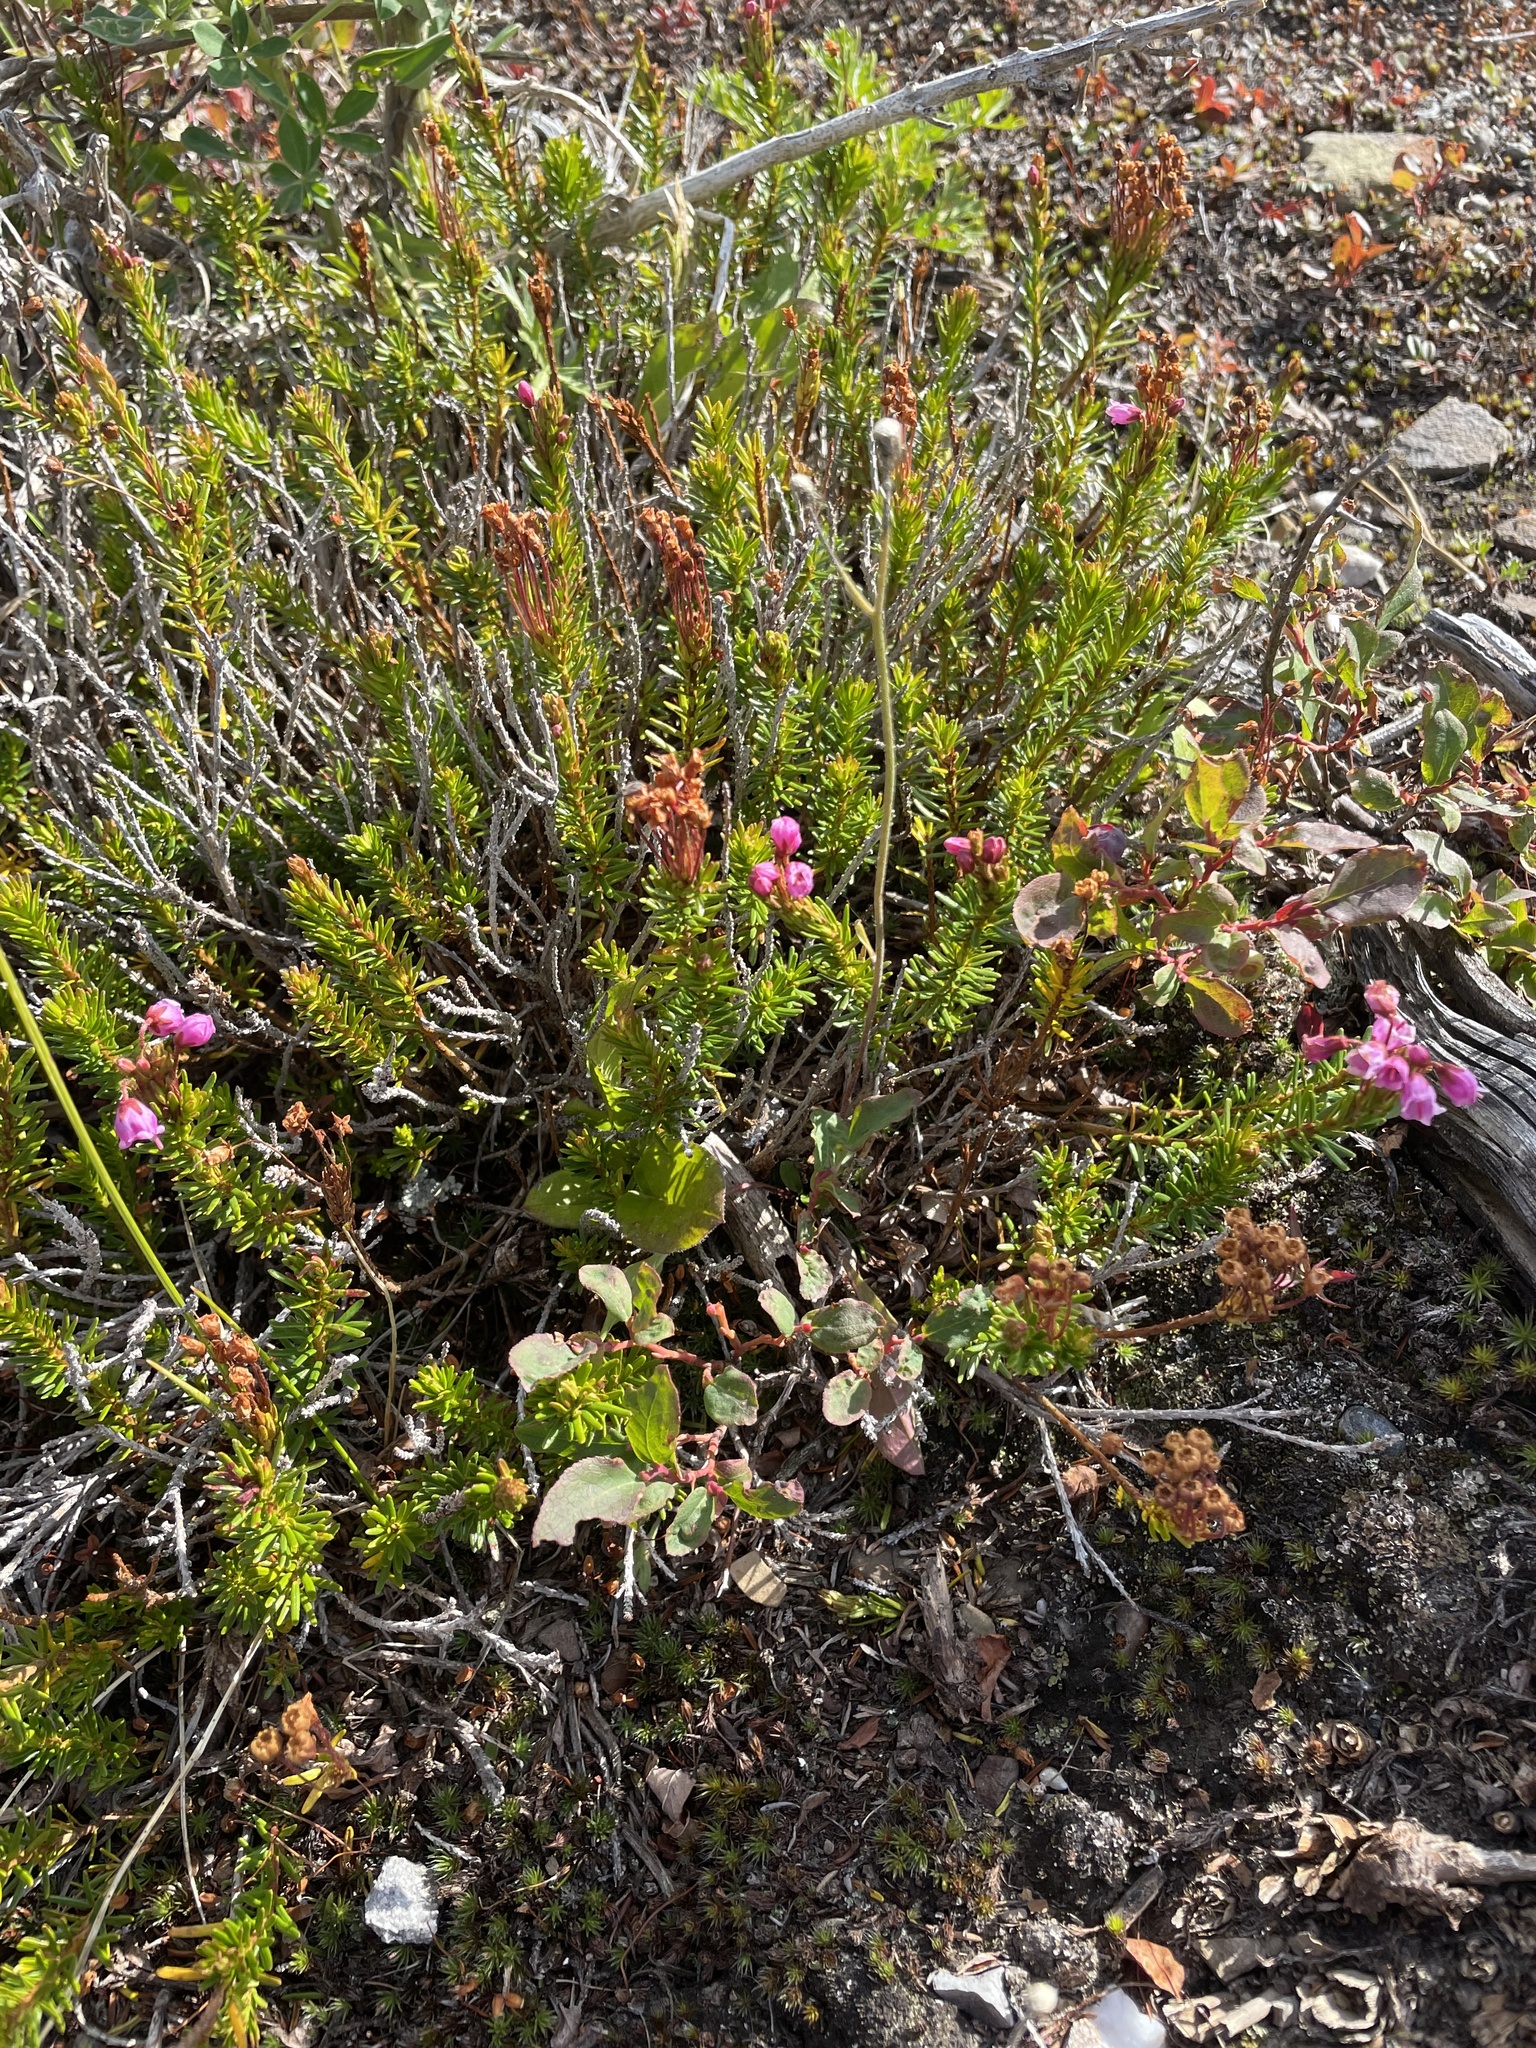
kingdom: Plantae
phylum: Tracheophyta
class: Magnoliopsida
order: Ericales
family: Ericaceae
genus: Phyllodoce
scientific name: Phyllodoce empetriformis
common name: Pink mountain heather
